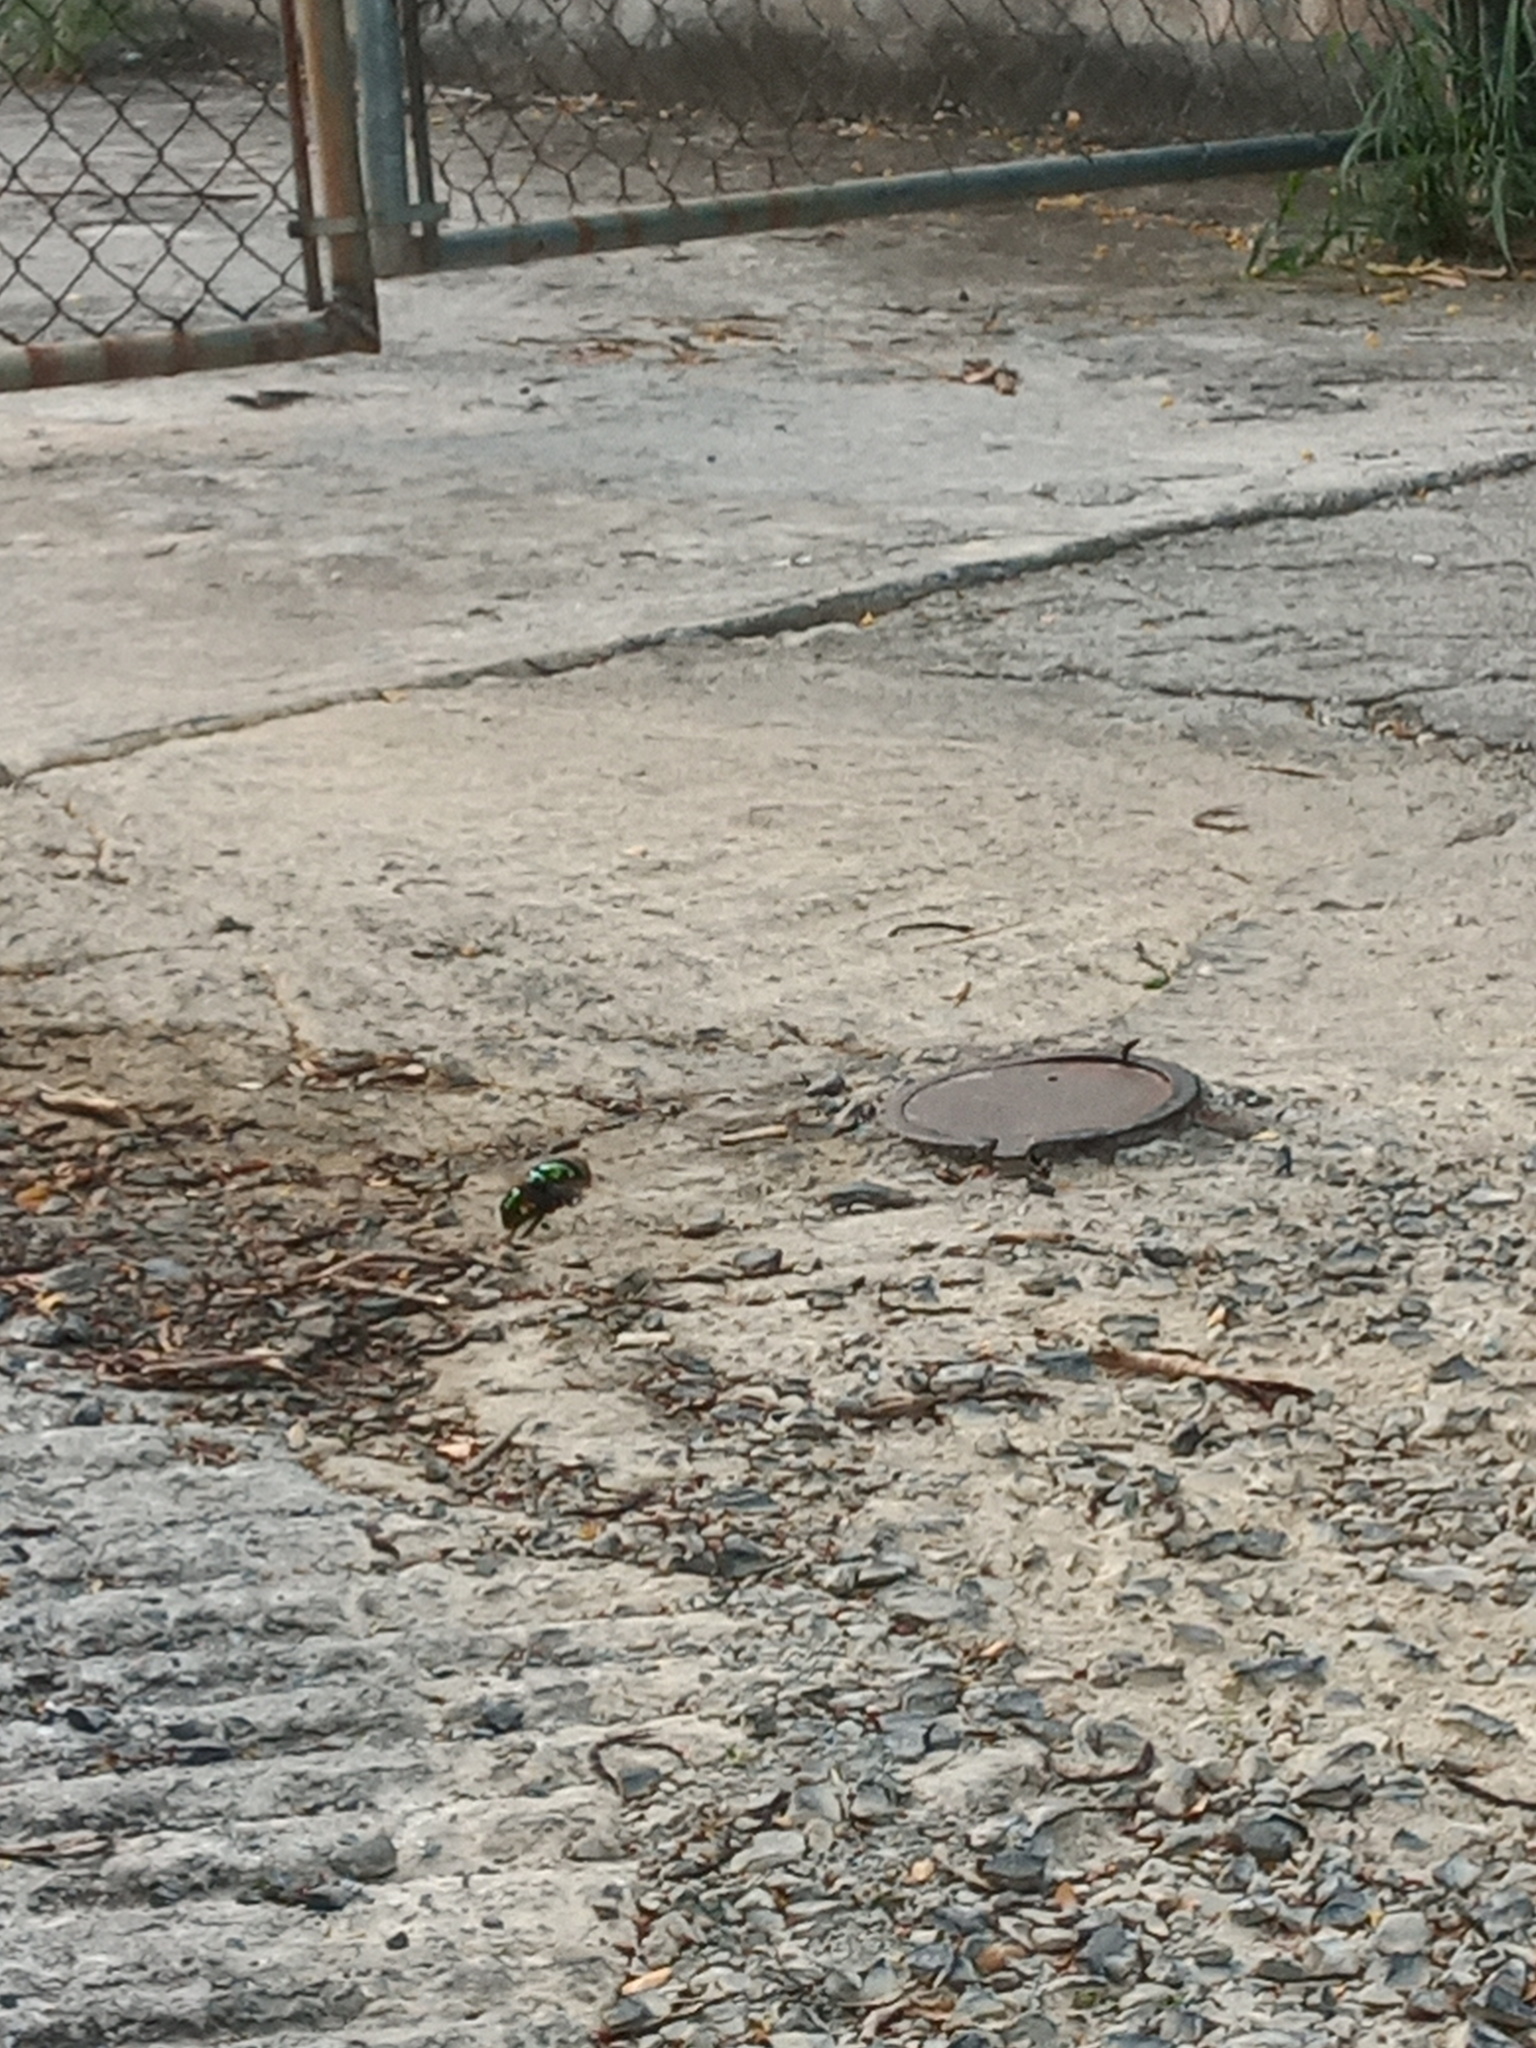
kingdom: Animalia
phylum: Arthropoda
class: Insecta
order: Diptera
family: Syrphidae
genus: Ornidia
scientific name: Ornidia obesa
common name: Syrphid fly
